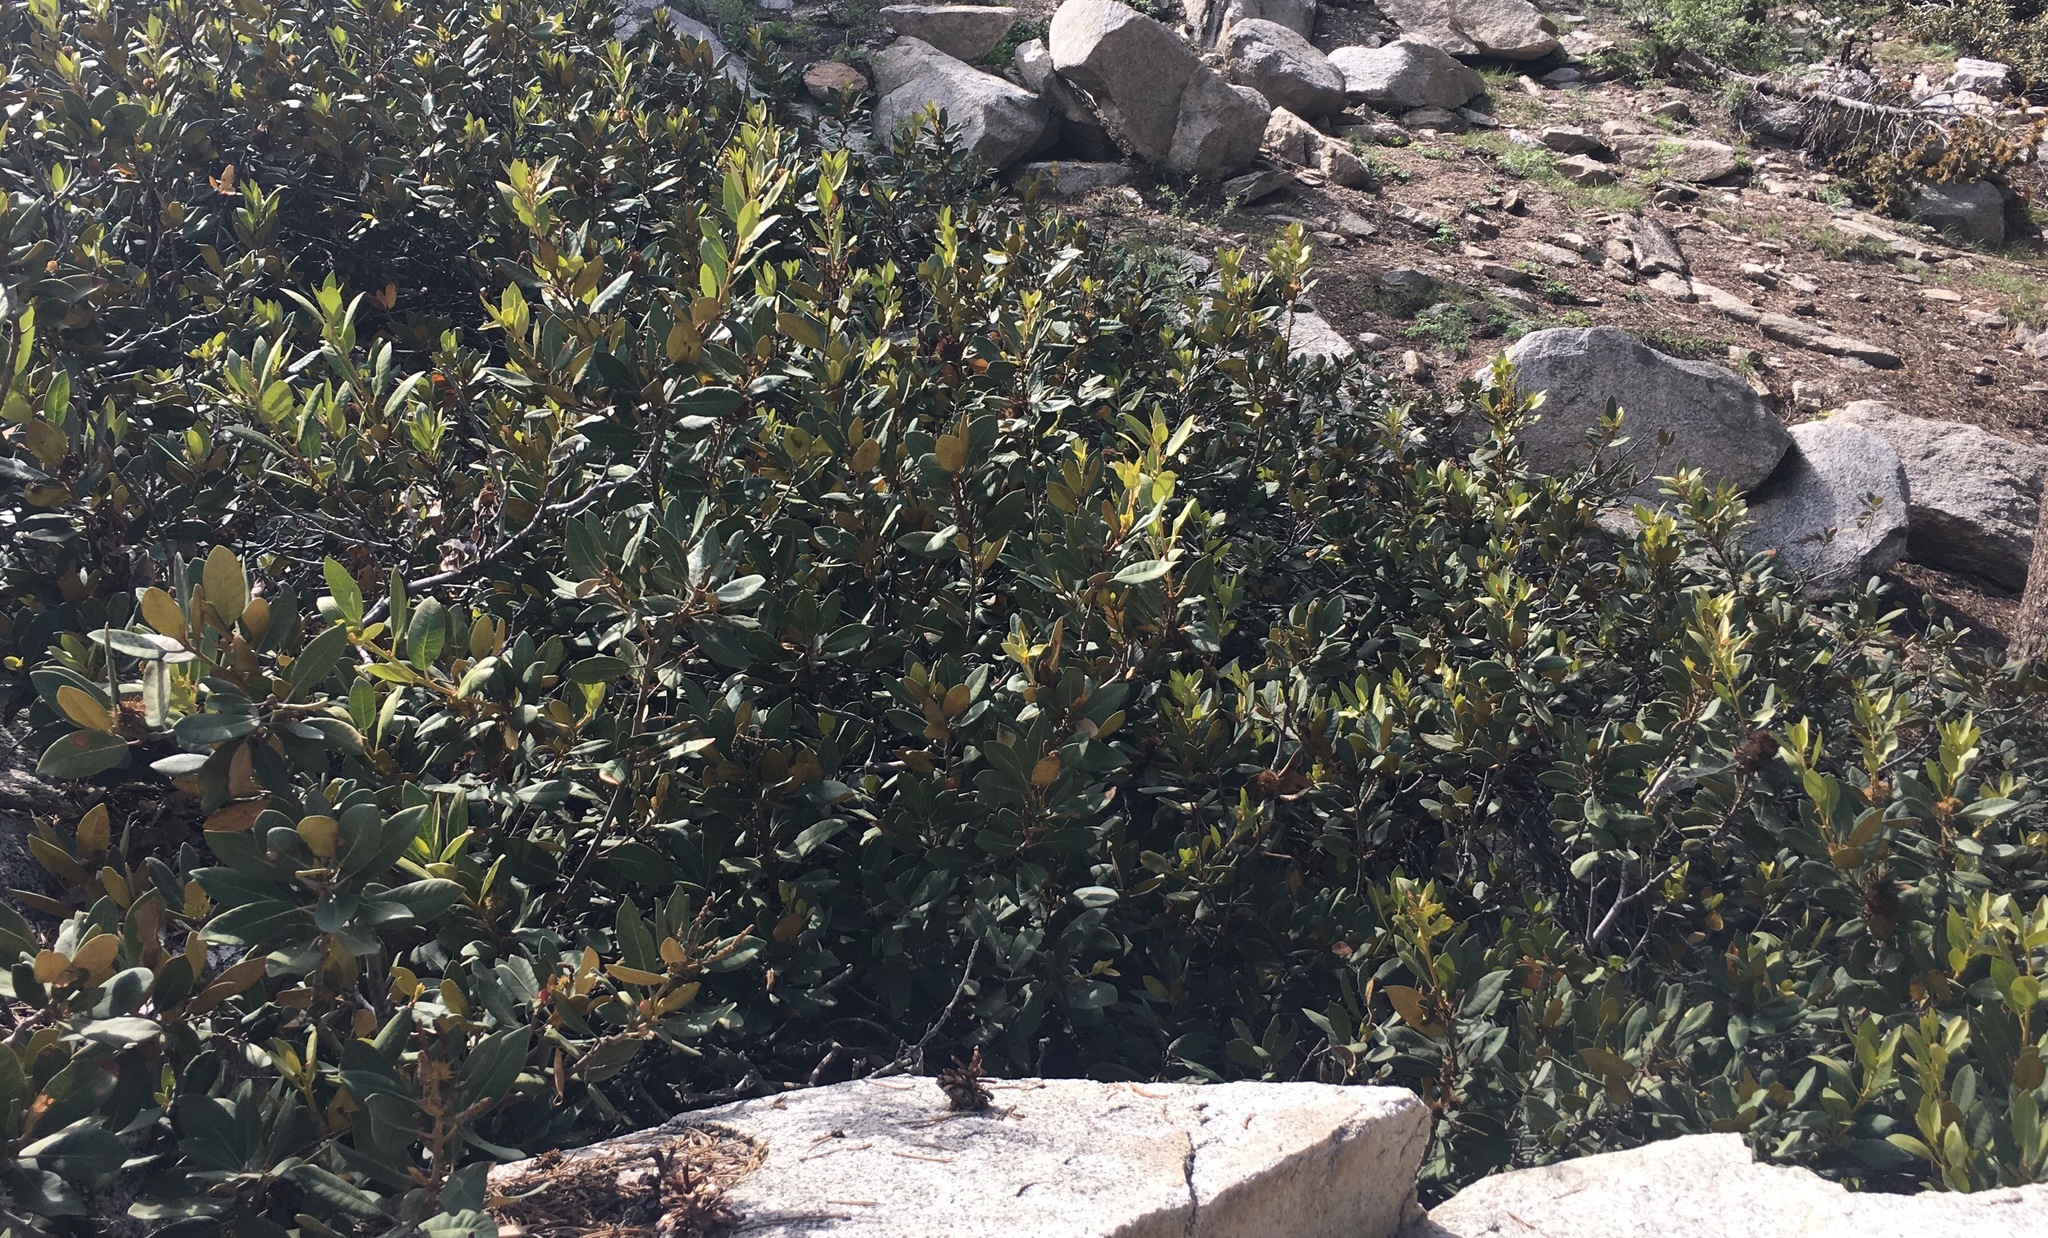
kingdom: Plantae
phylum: Tracheophyta
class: Magnoliopsida
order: Fagales
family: Fagaceae
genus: Chrysolepis
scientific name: Chrysolepis sempervirens
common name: Bush chinquapin
